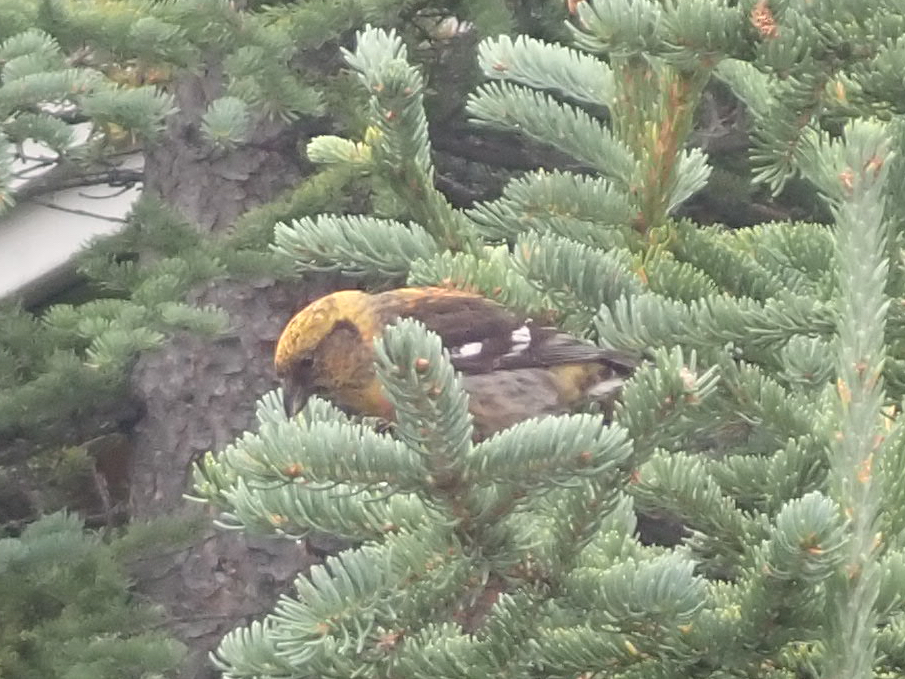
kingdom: Animalia
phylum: Chordata
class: Aves
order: Passeriformes
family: Fringillidae
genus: Loxia
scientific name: Loxia leucoptera
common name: Two-barred crossbill
